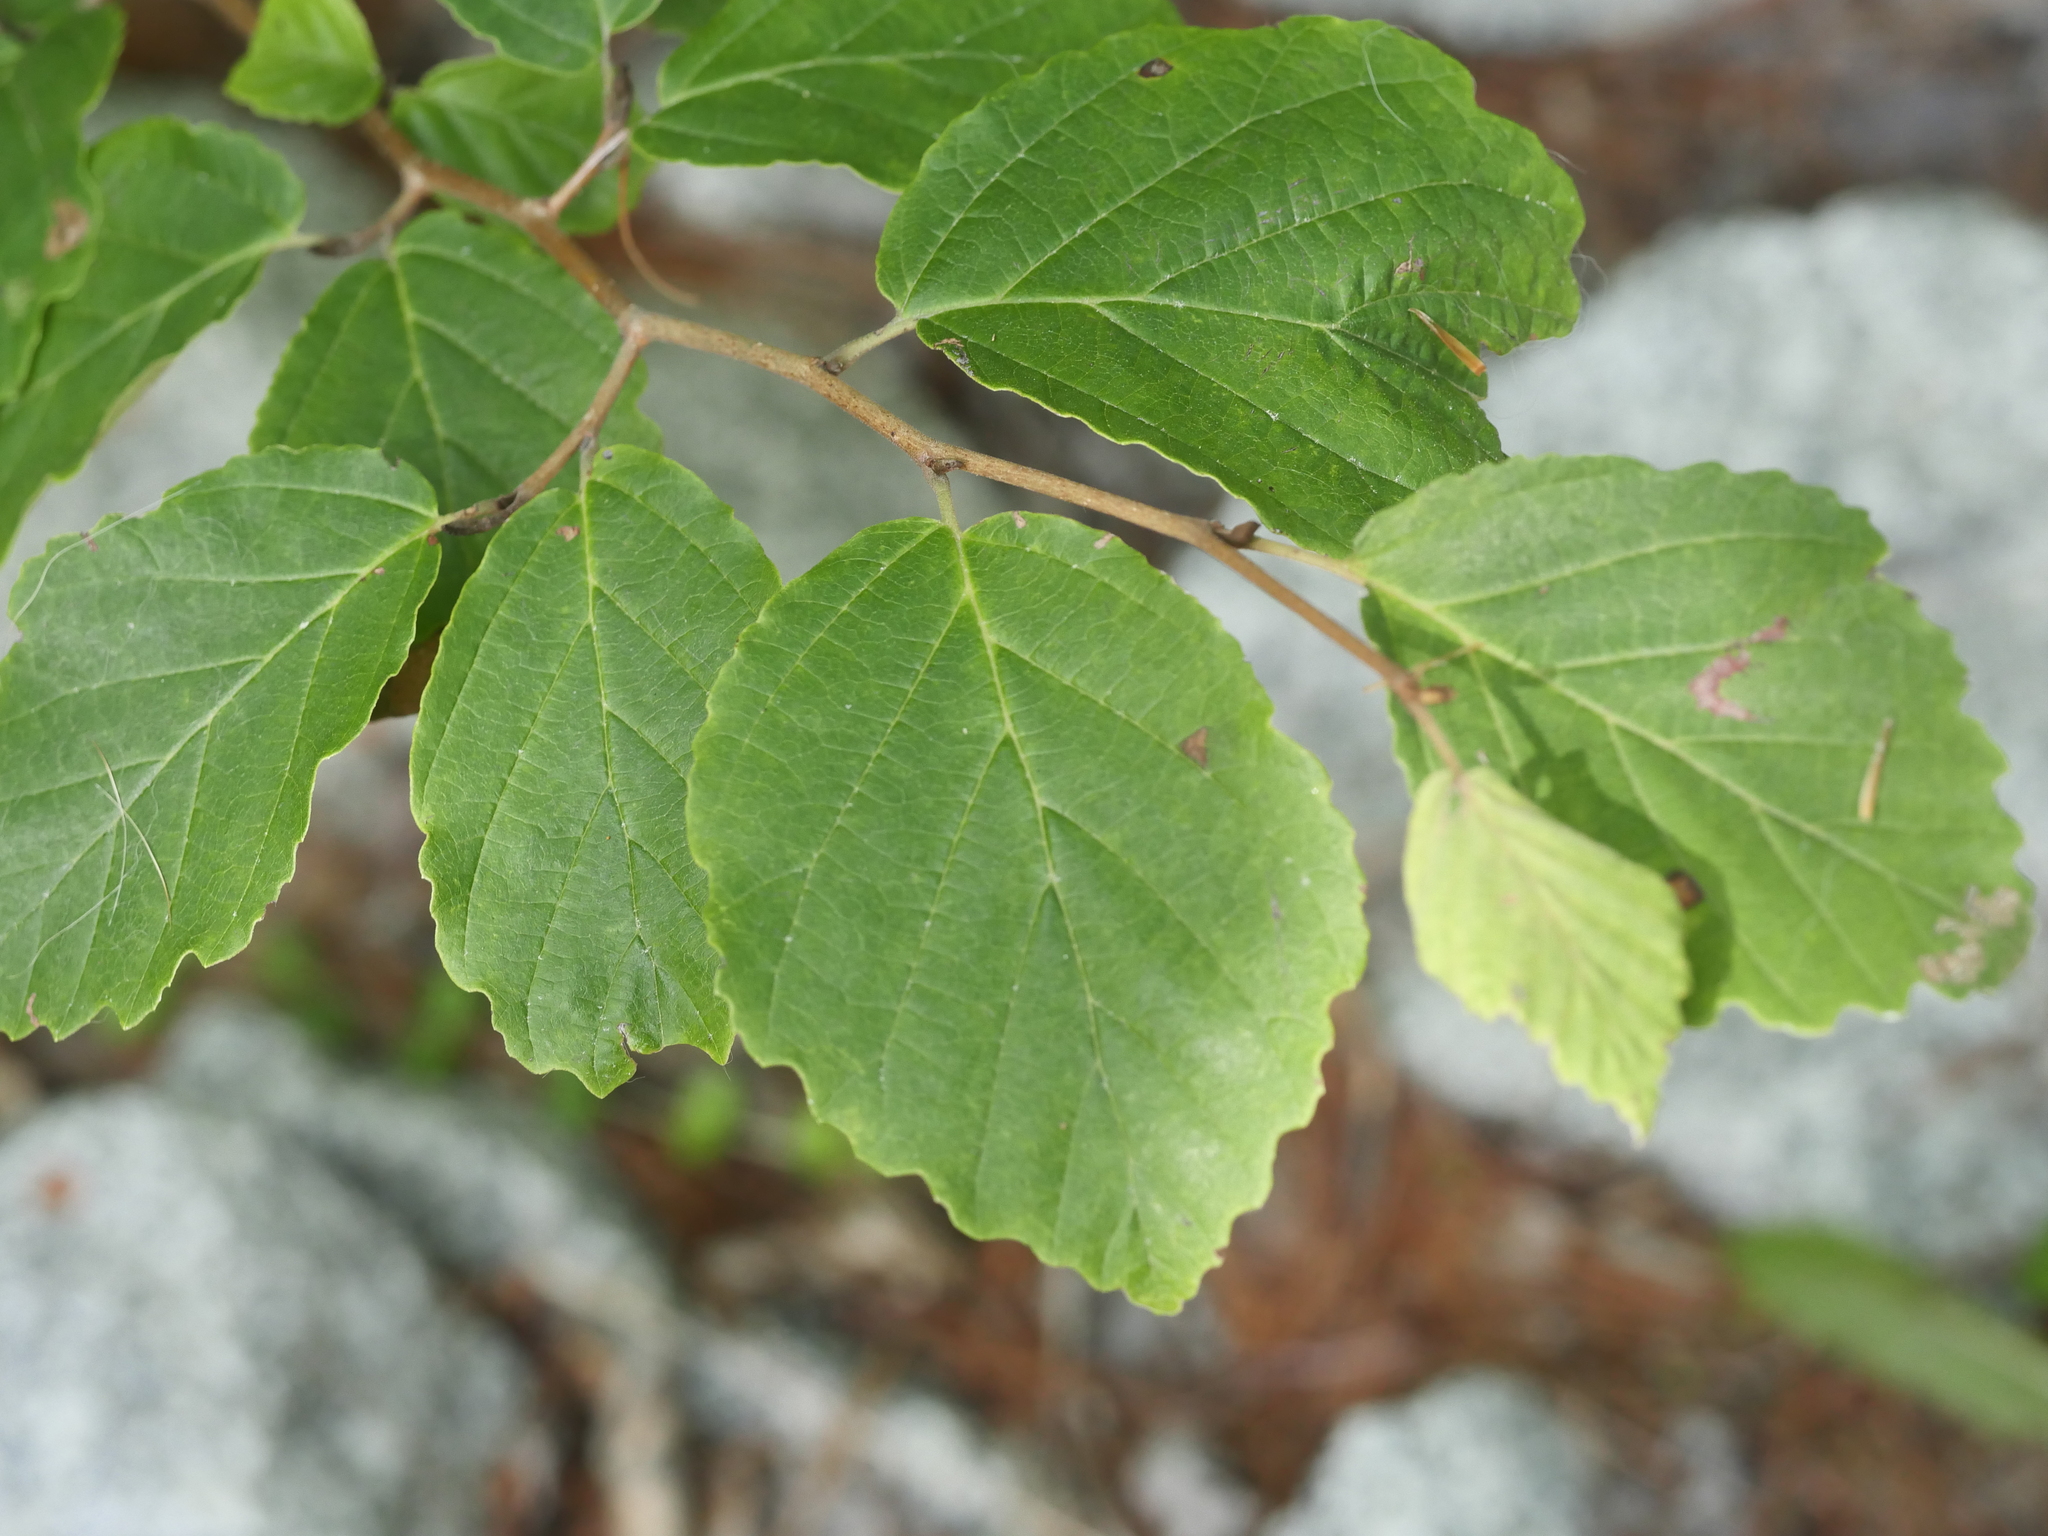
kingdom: Plantae
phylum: Tracheophyta
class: Magnoliopsida
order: Saxifragales
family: Hamamelidaceae
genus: Hamamelis
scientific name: Hamamelis virginiana
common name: Witch-hazel
